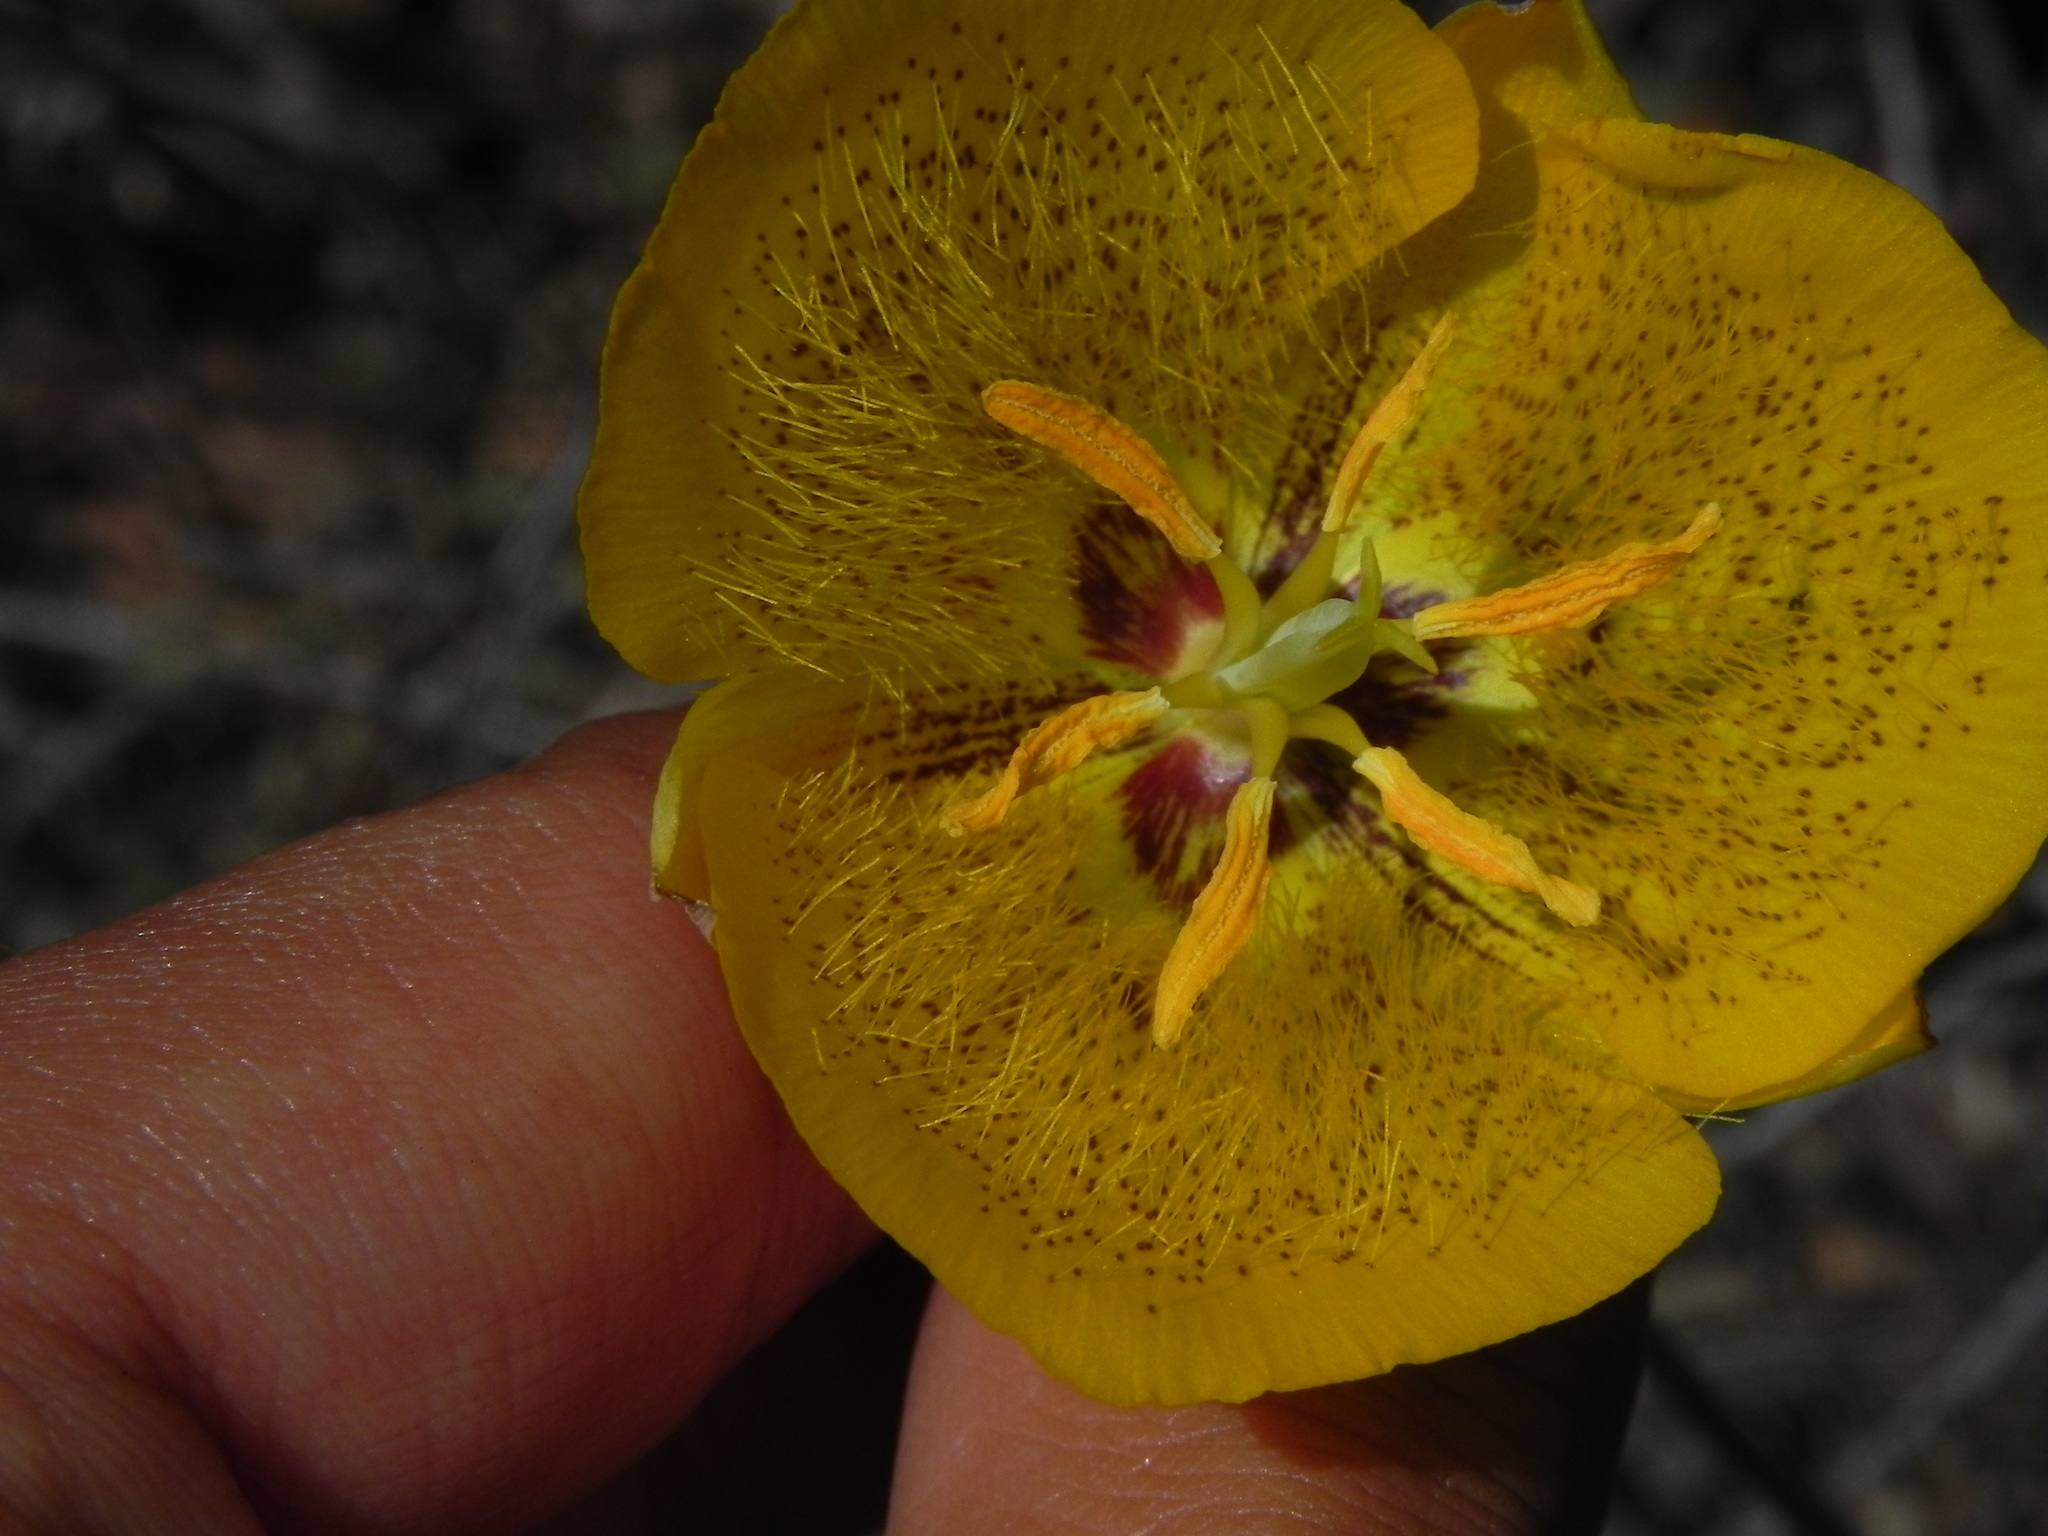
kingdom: Plantae
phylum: Tracheophyta
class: Liliopsida
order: Liliales
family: Liliaceae
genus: Calochortus
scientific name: Calochortus weedii
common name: Weed's mariposa-lily
